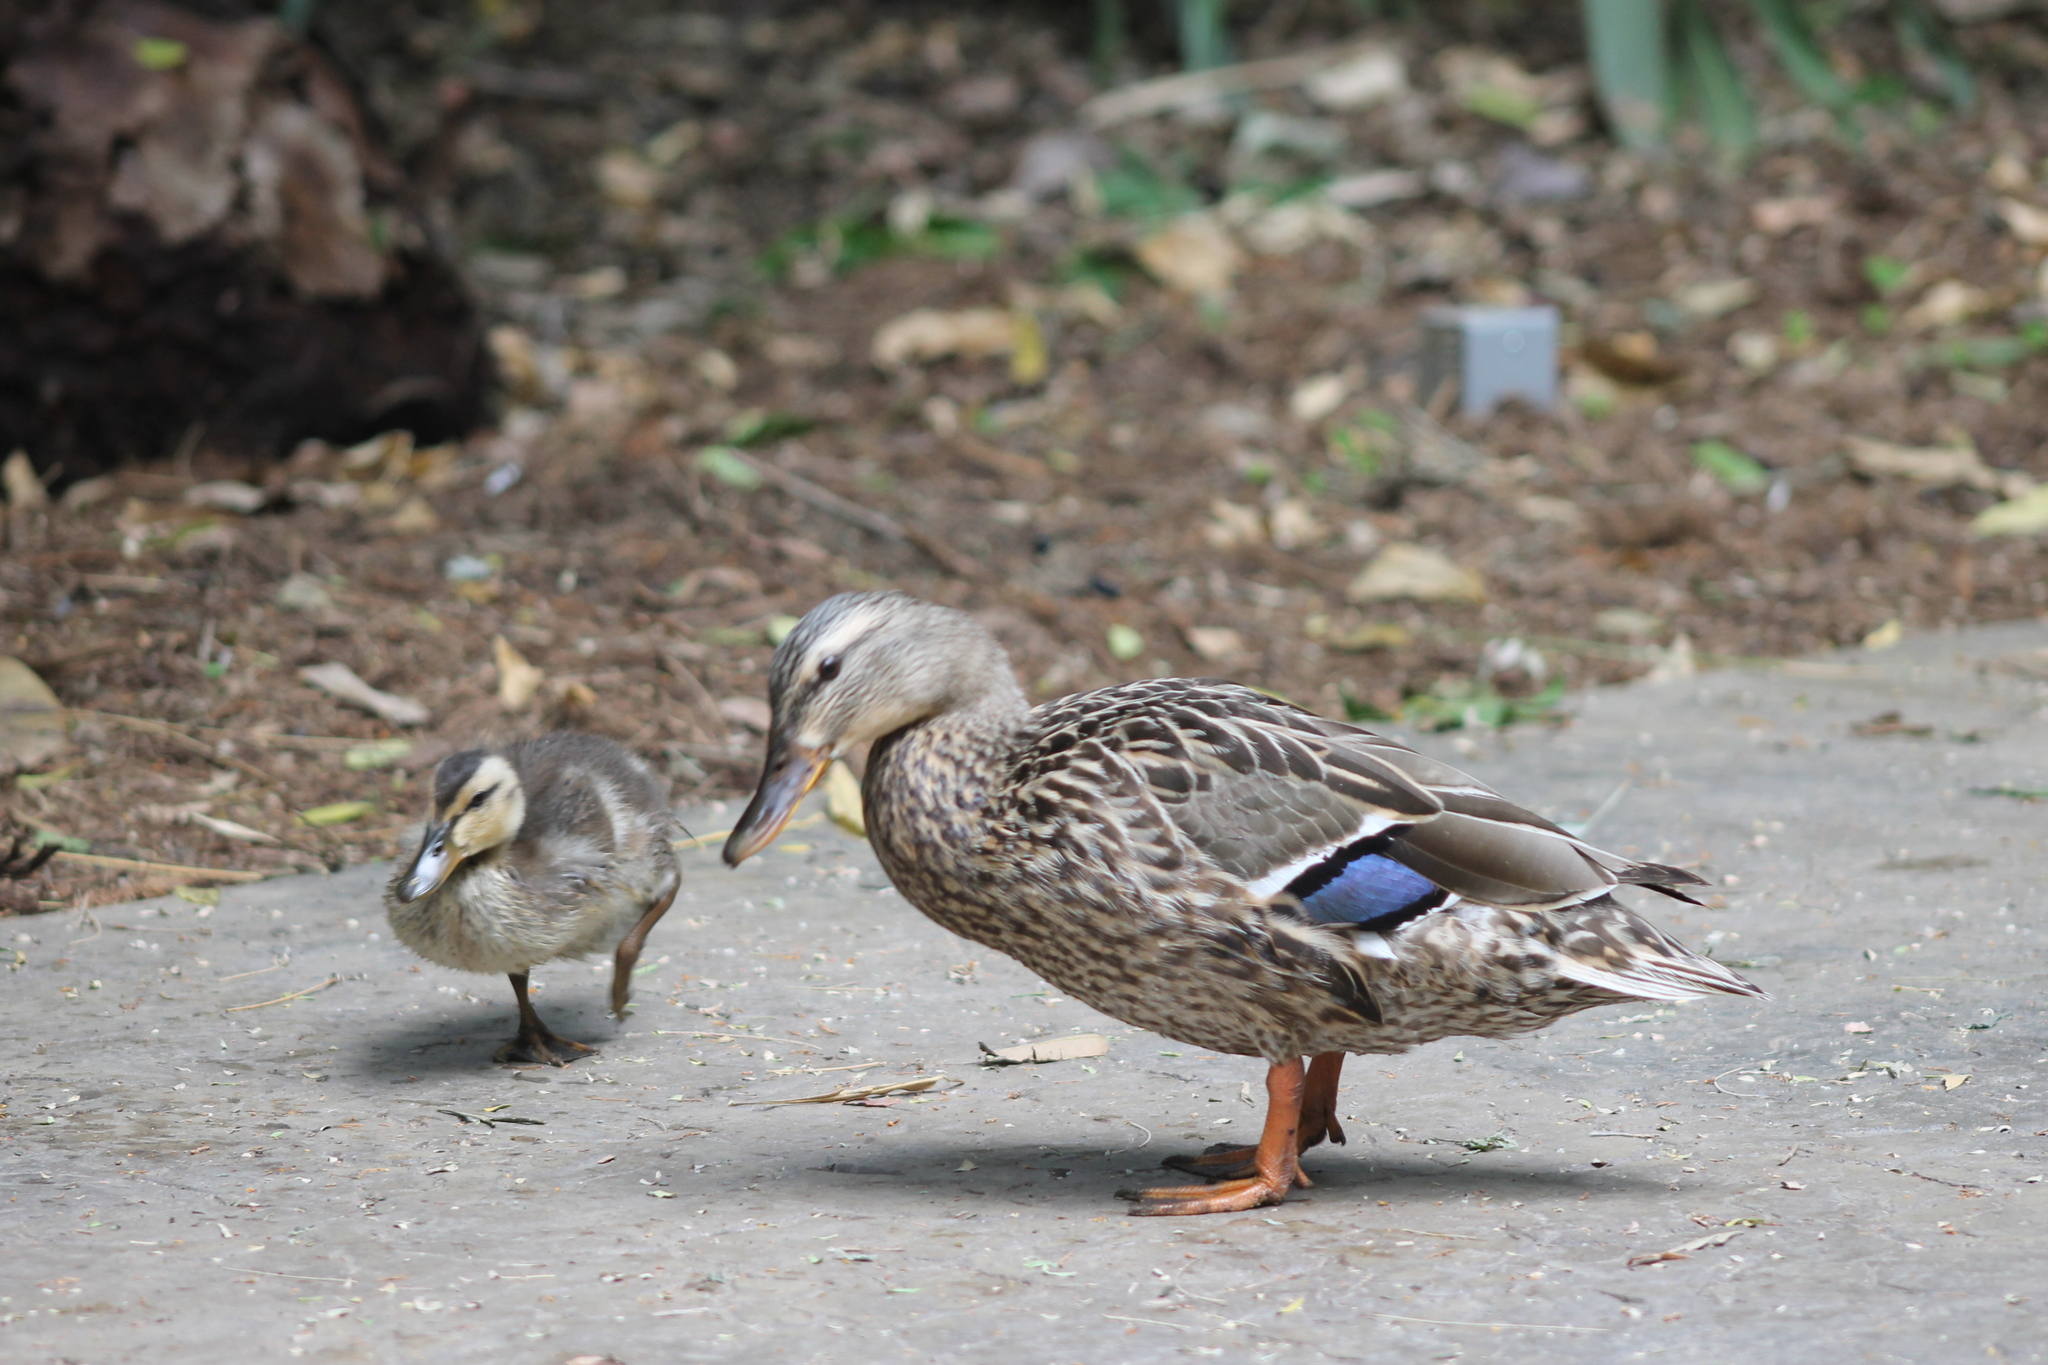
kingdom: Animalia
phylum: Chordata
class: Aves
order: Anseriformes
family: Anatidae
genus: Anas
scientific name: Anas platyrhynchos
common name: Mallard
